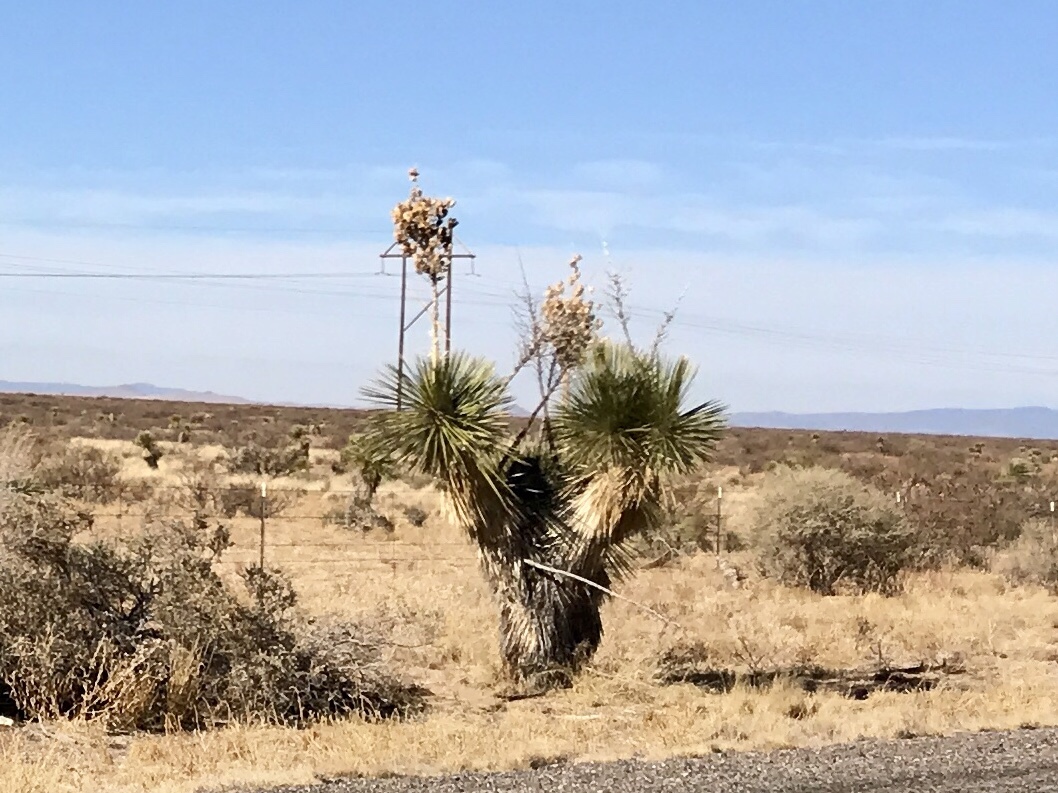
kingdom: Plantae
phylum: Tracheophyta
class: Liliopsida
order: Asparagales
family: Asparagaceae
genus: Yucca
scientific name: Yucca elata
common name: Palmella
